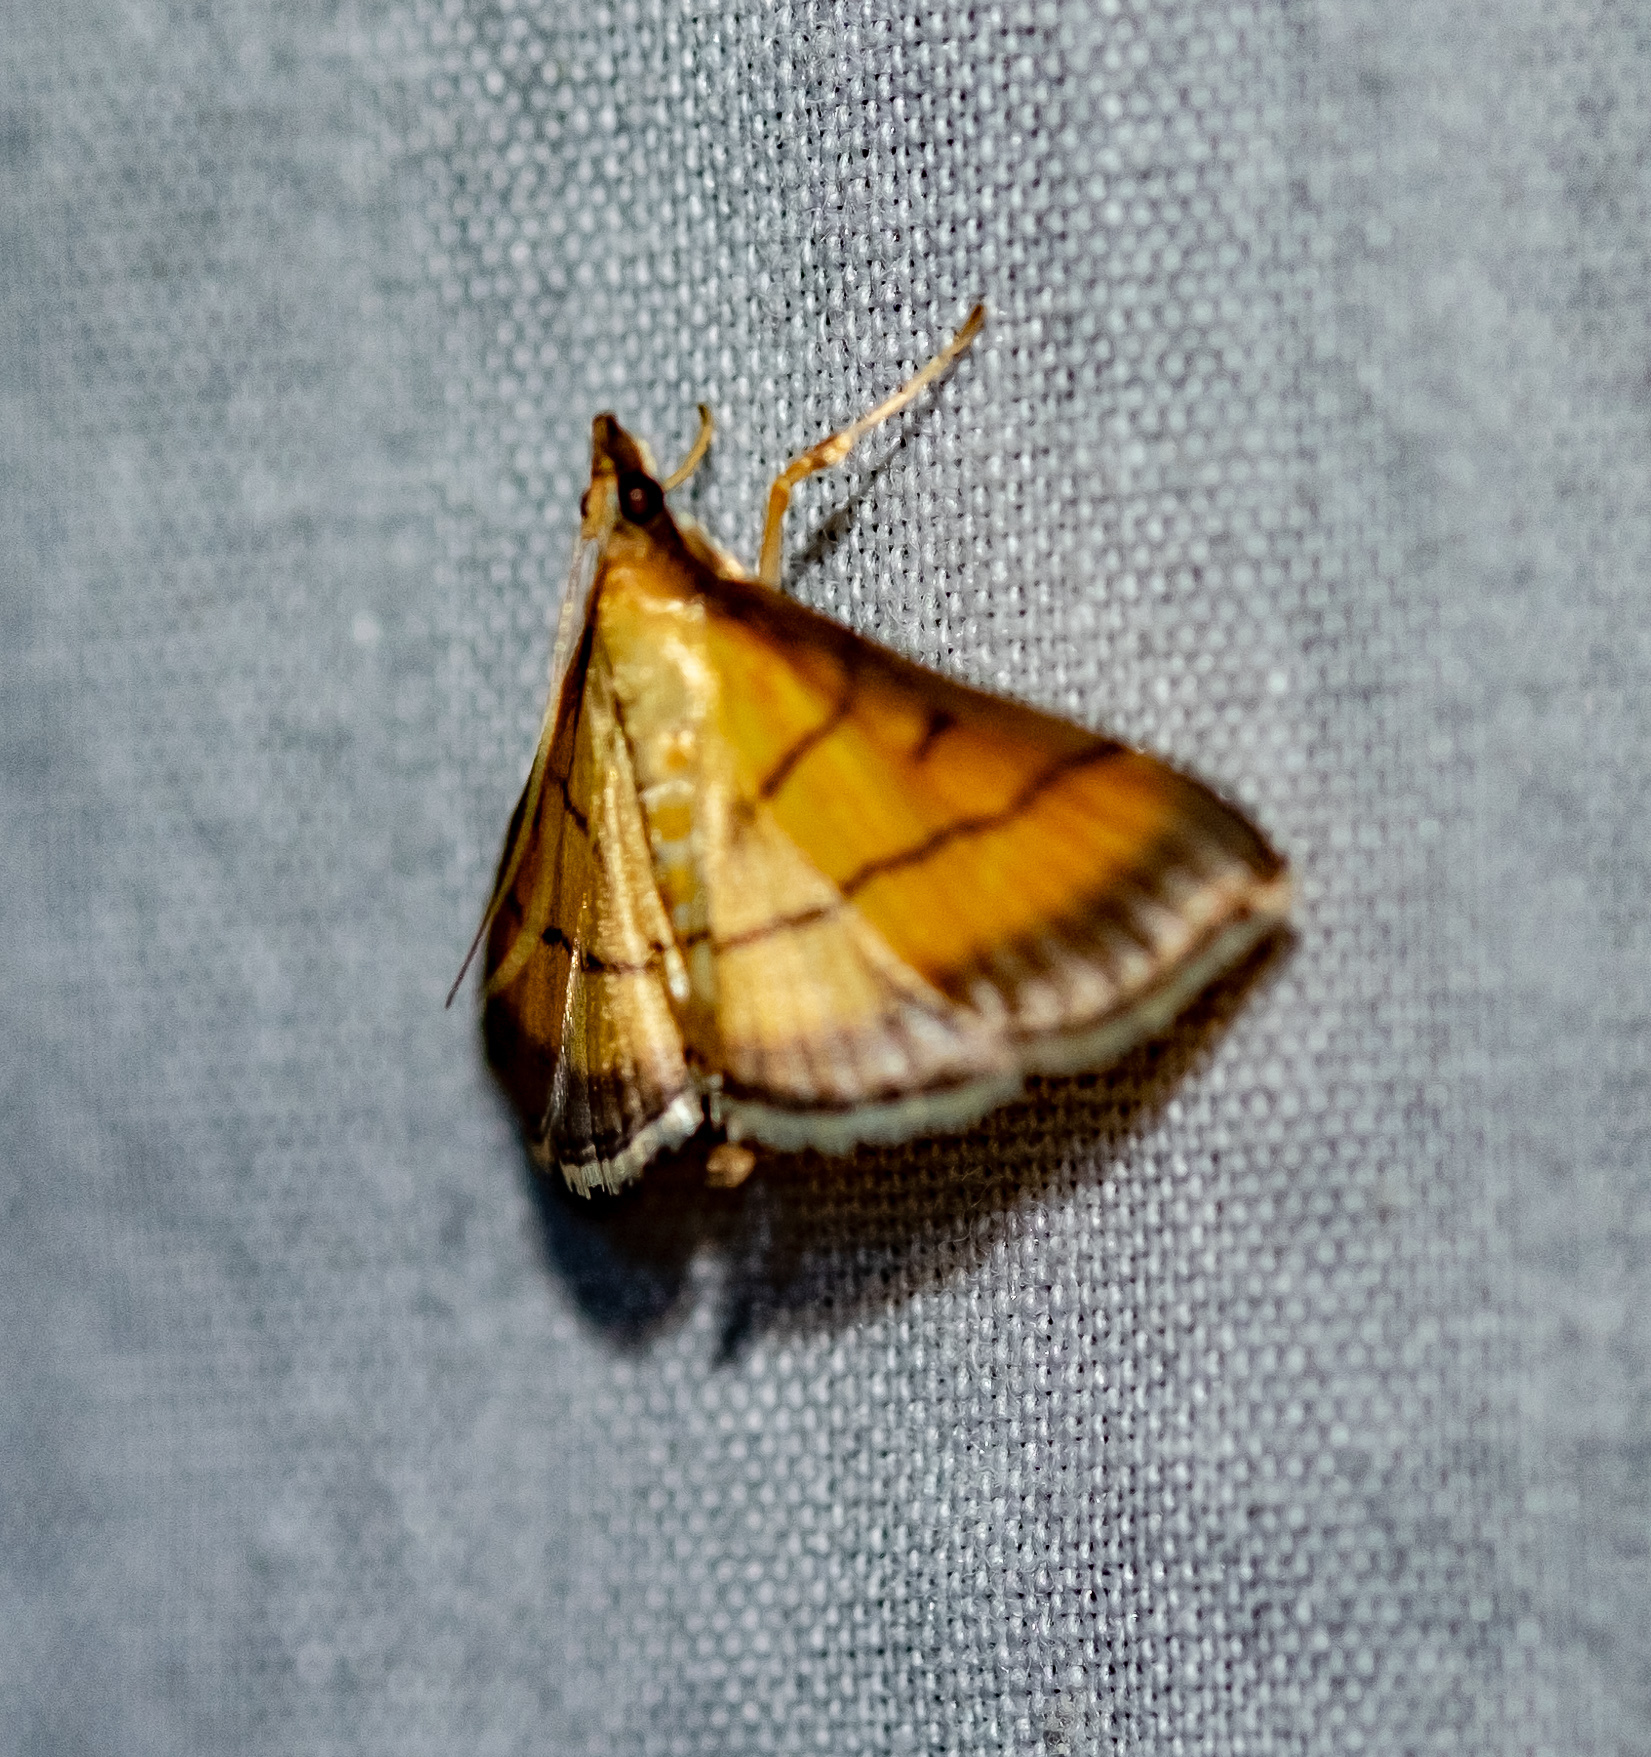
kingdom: Animalia
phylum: Arthropoda
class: Insecta
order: Lepidoptera
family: Crambidae
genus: Cnaphalocrocis
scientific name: Cnaphalocrocis medinalis
